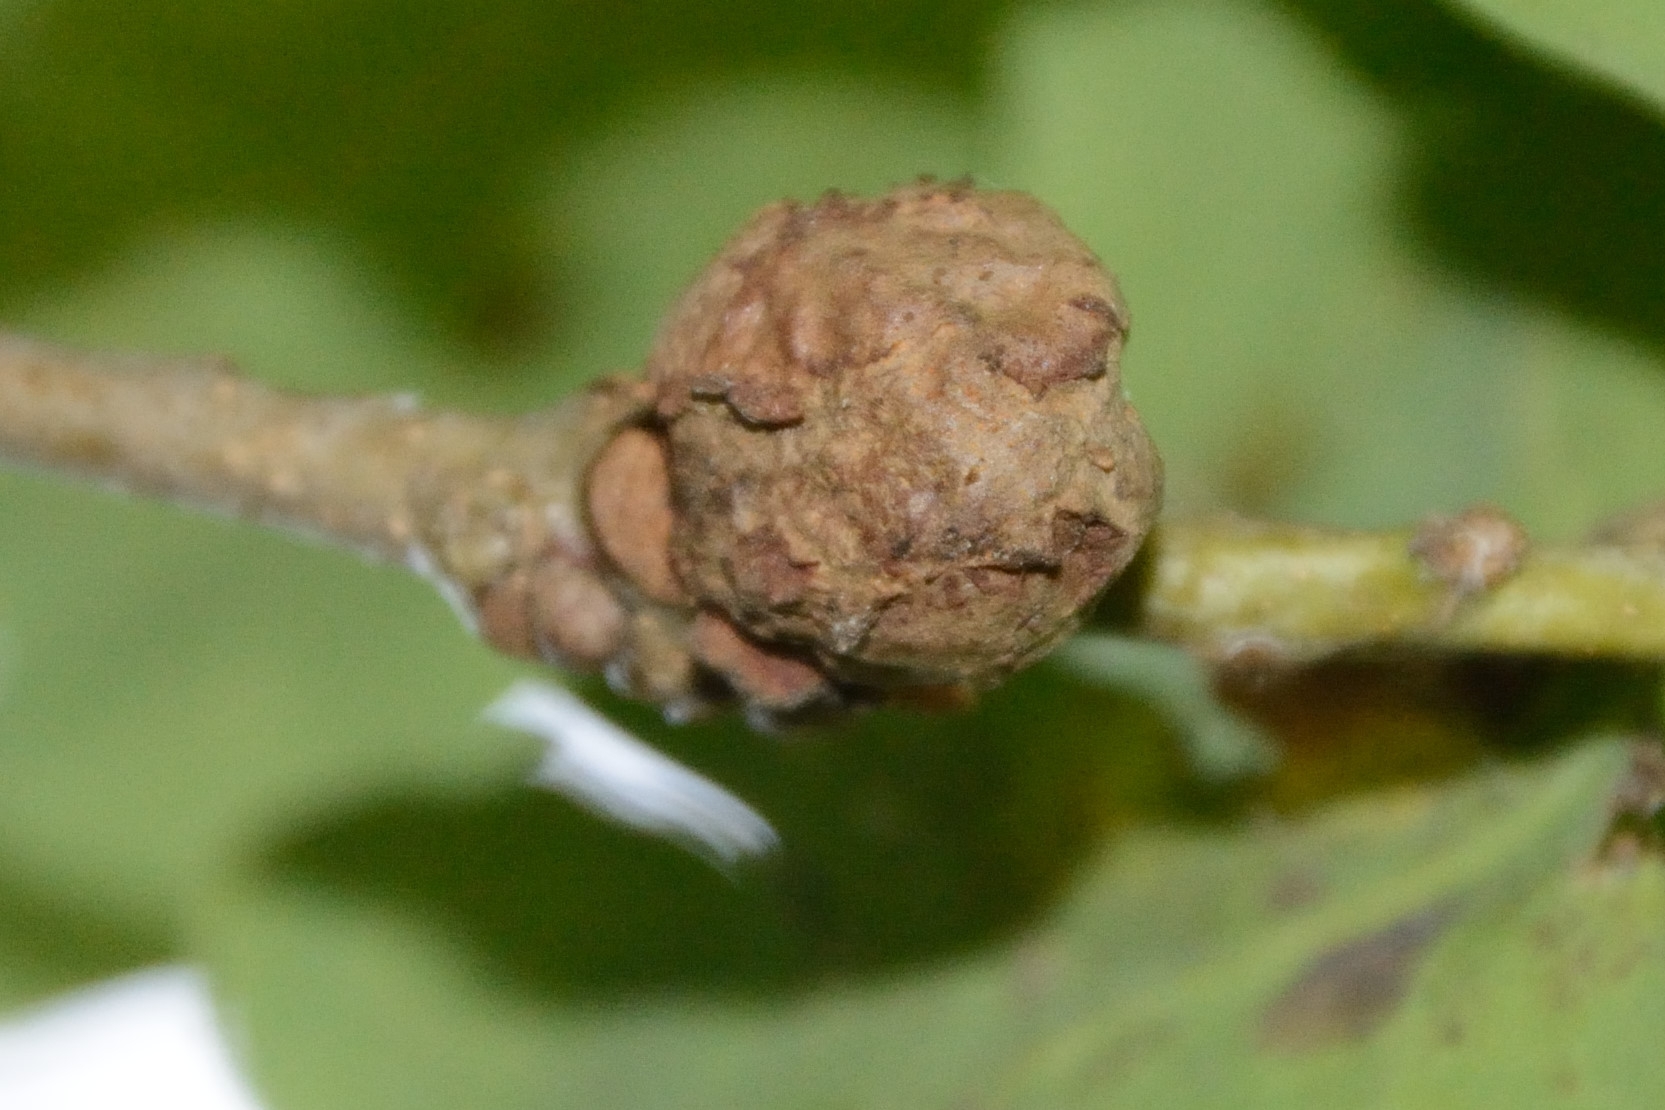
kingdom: Animalia
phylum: Arthropoda
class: Insecta
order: Hymenoptera
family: Cynipidae
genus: Andricus
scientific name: Andricus lignicolus
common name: Cola-nut gall
